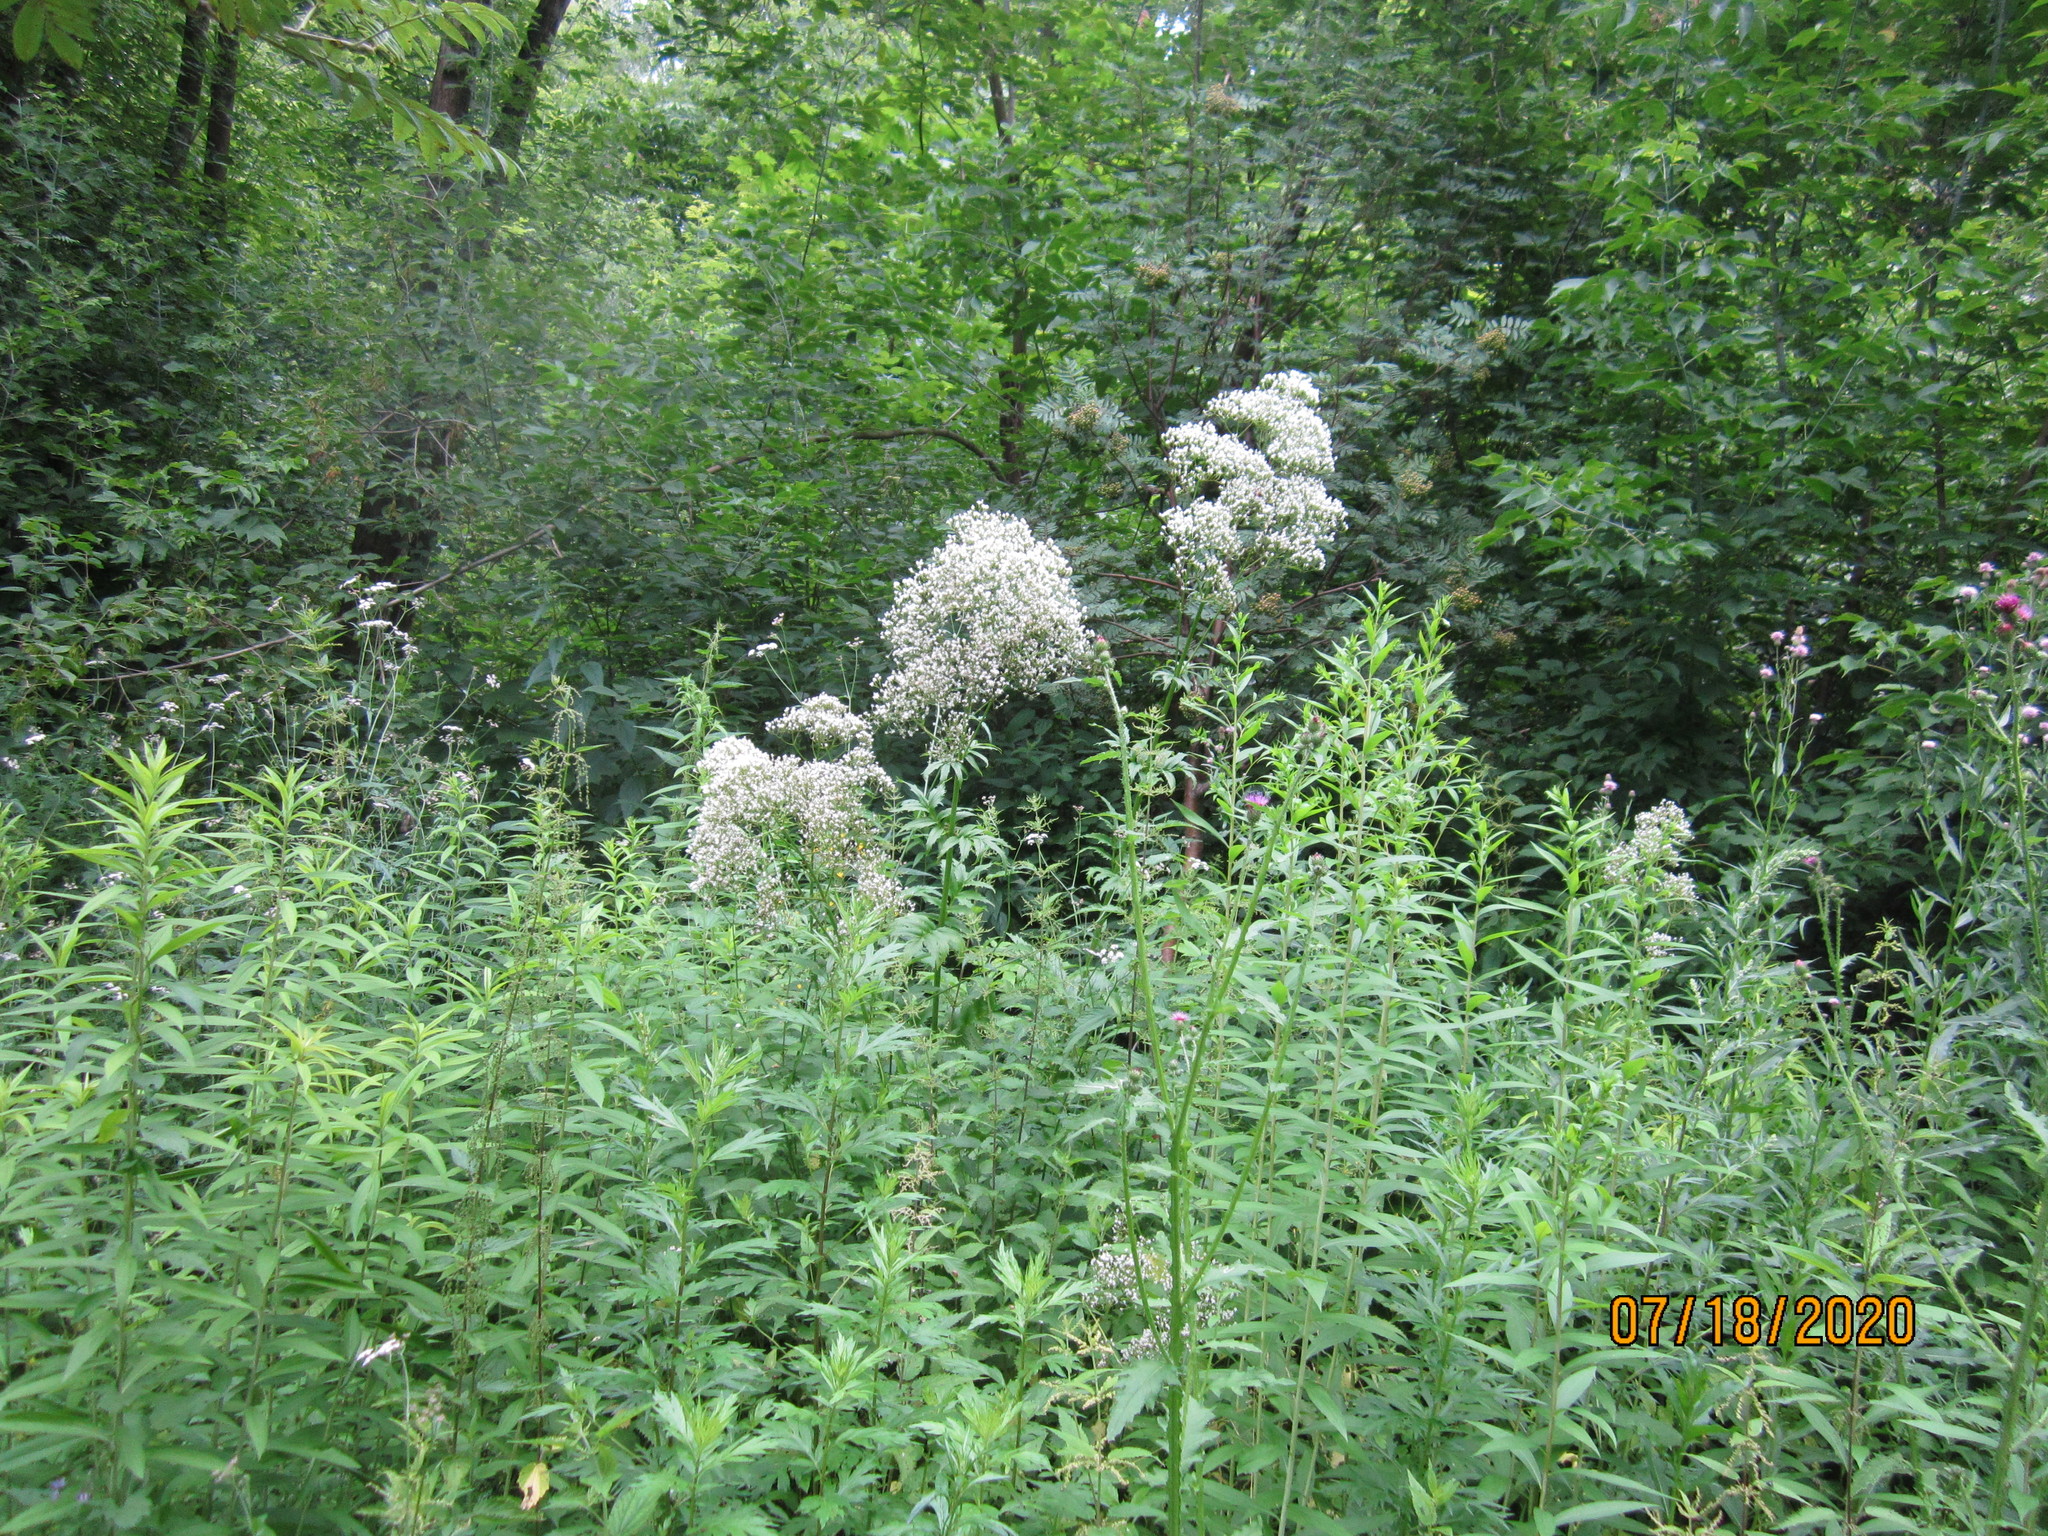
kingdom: Plantae
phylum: Tracheophyta
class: Magnoliopsida
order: Dipsacales
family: Caprifoliaceae
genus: Valeriana
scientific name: Valeriana officinalis
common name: Common valerian
